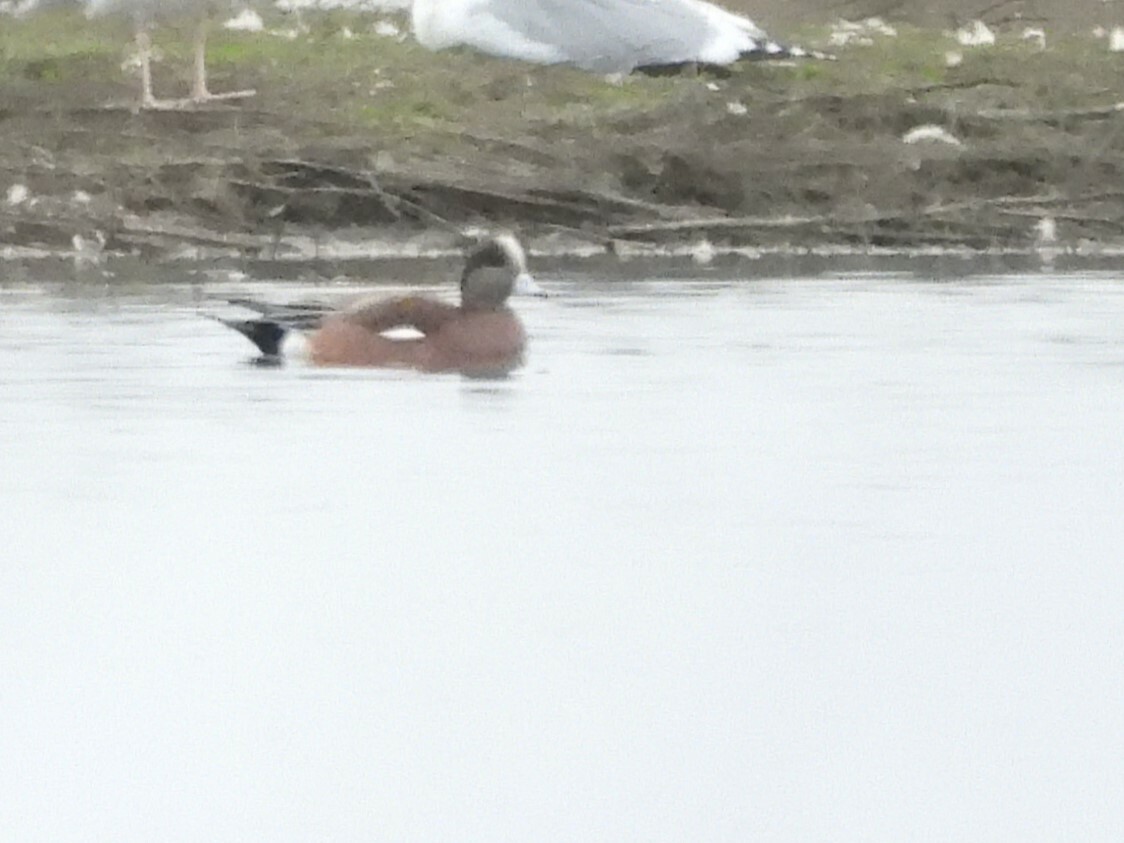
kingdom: Animalia
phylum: Chordata
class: Aves
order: Anseriformes
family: Anatidae
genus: Mareca
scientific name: Mareca americana
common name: American wigeon
